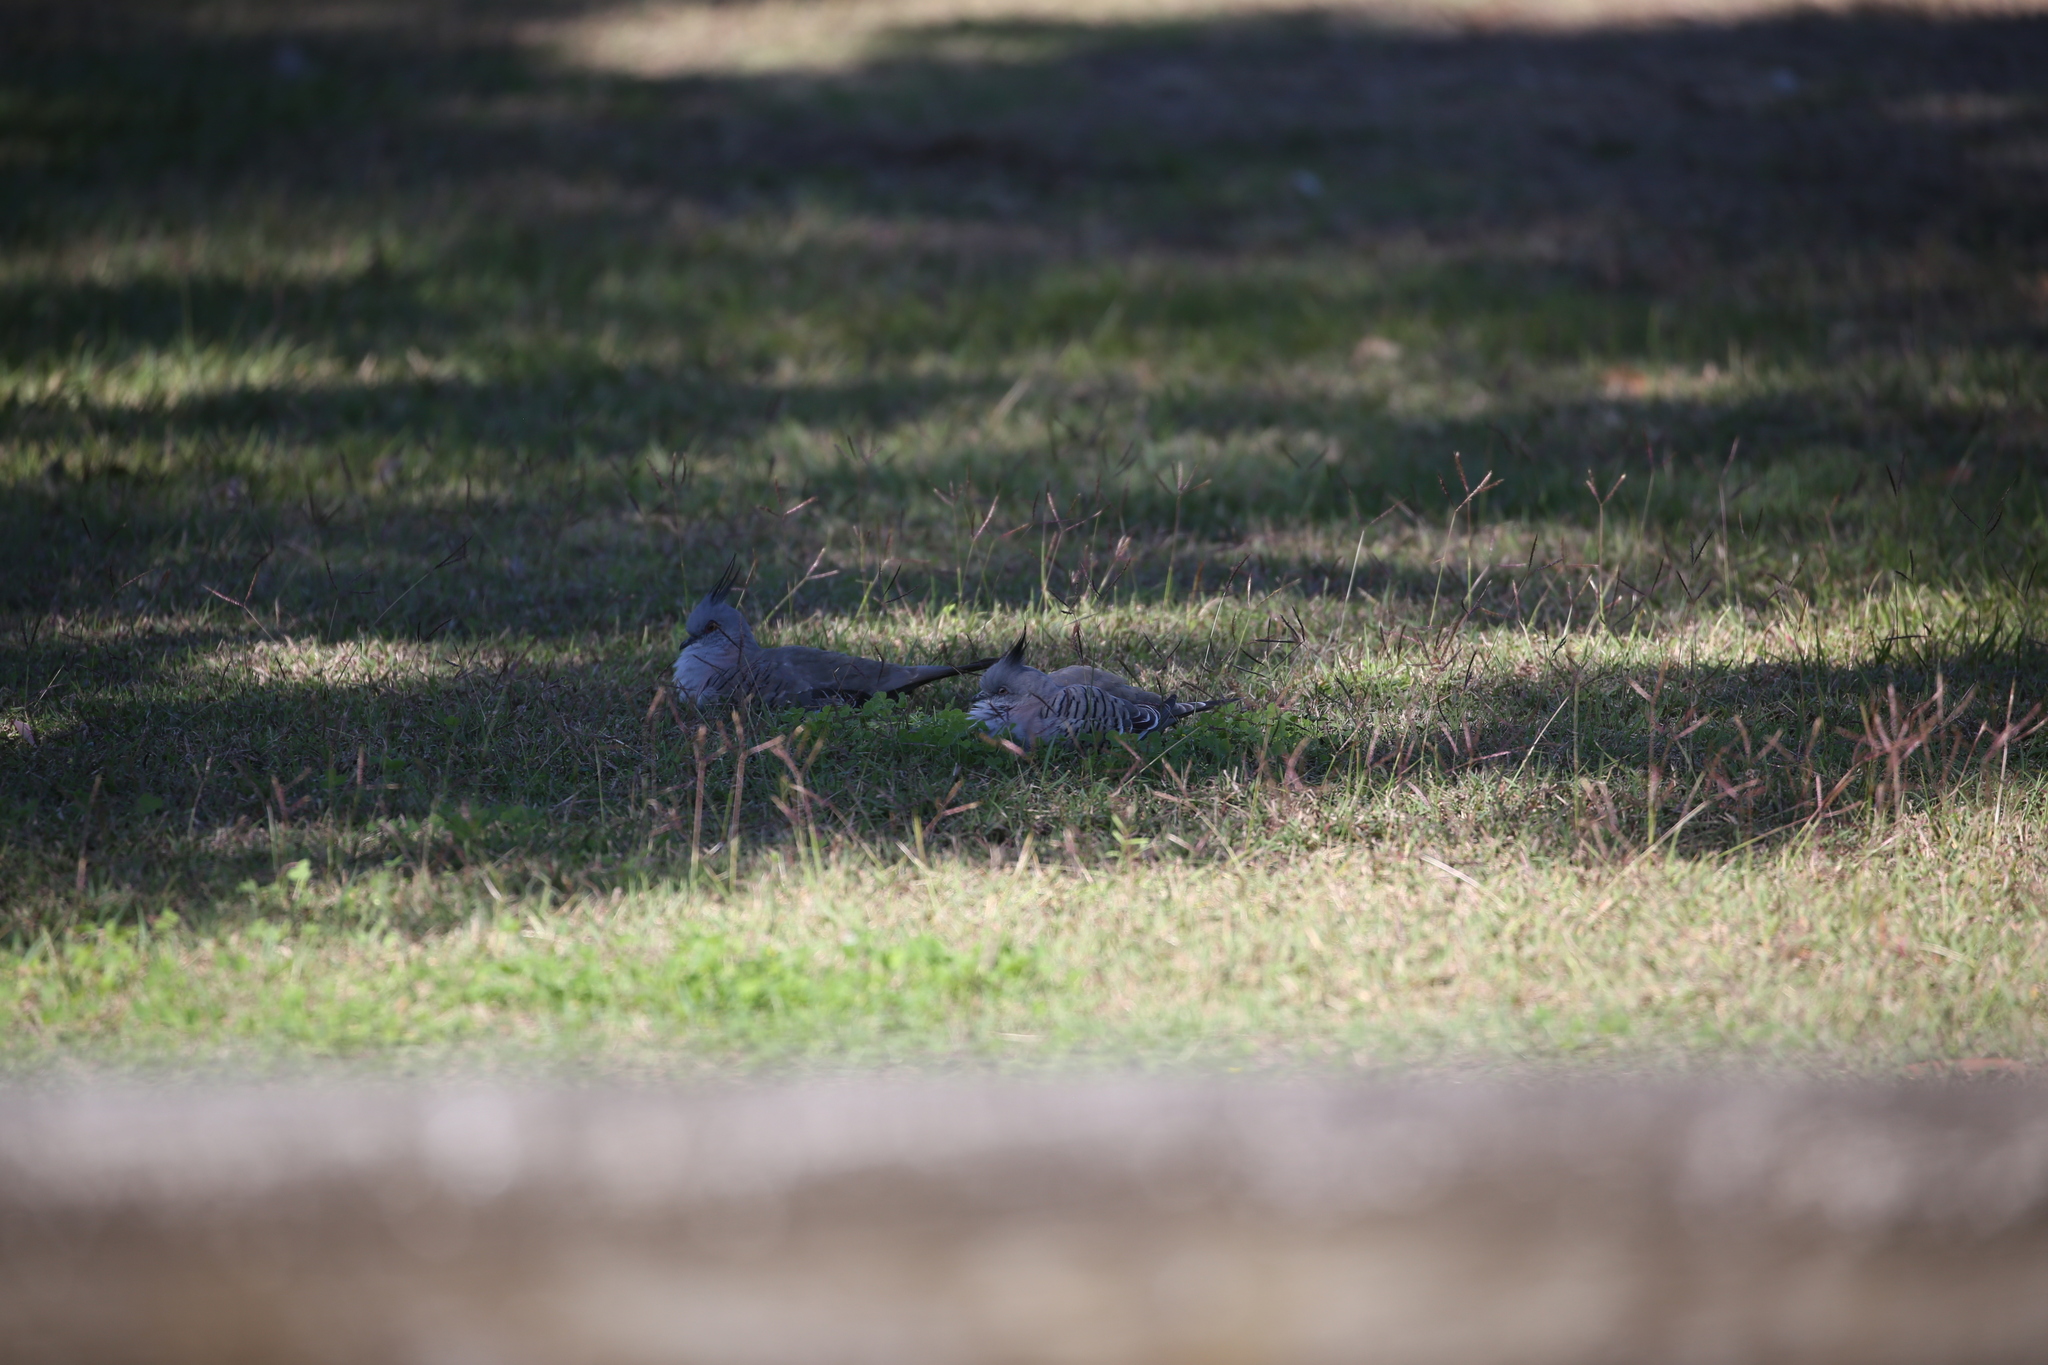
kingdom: Animalia
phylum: Chordata
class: Aves
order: Columbiformes
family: Columbidae
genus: Ocyphaps
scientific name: Ocyphaps lophotes
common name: Crested pigeon
